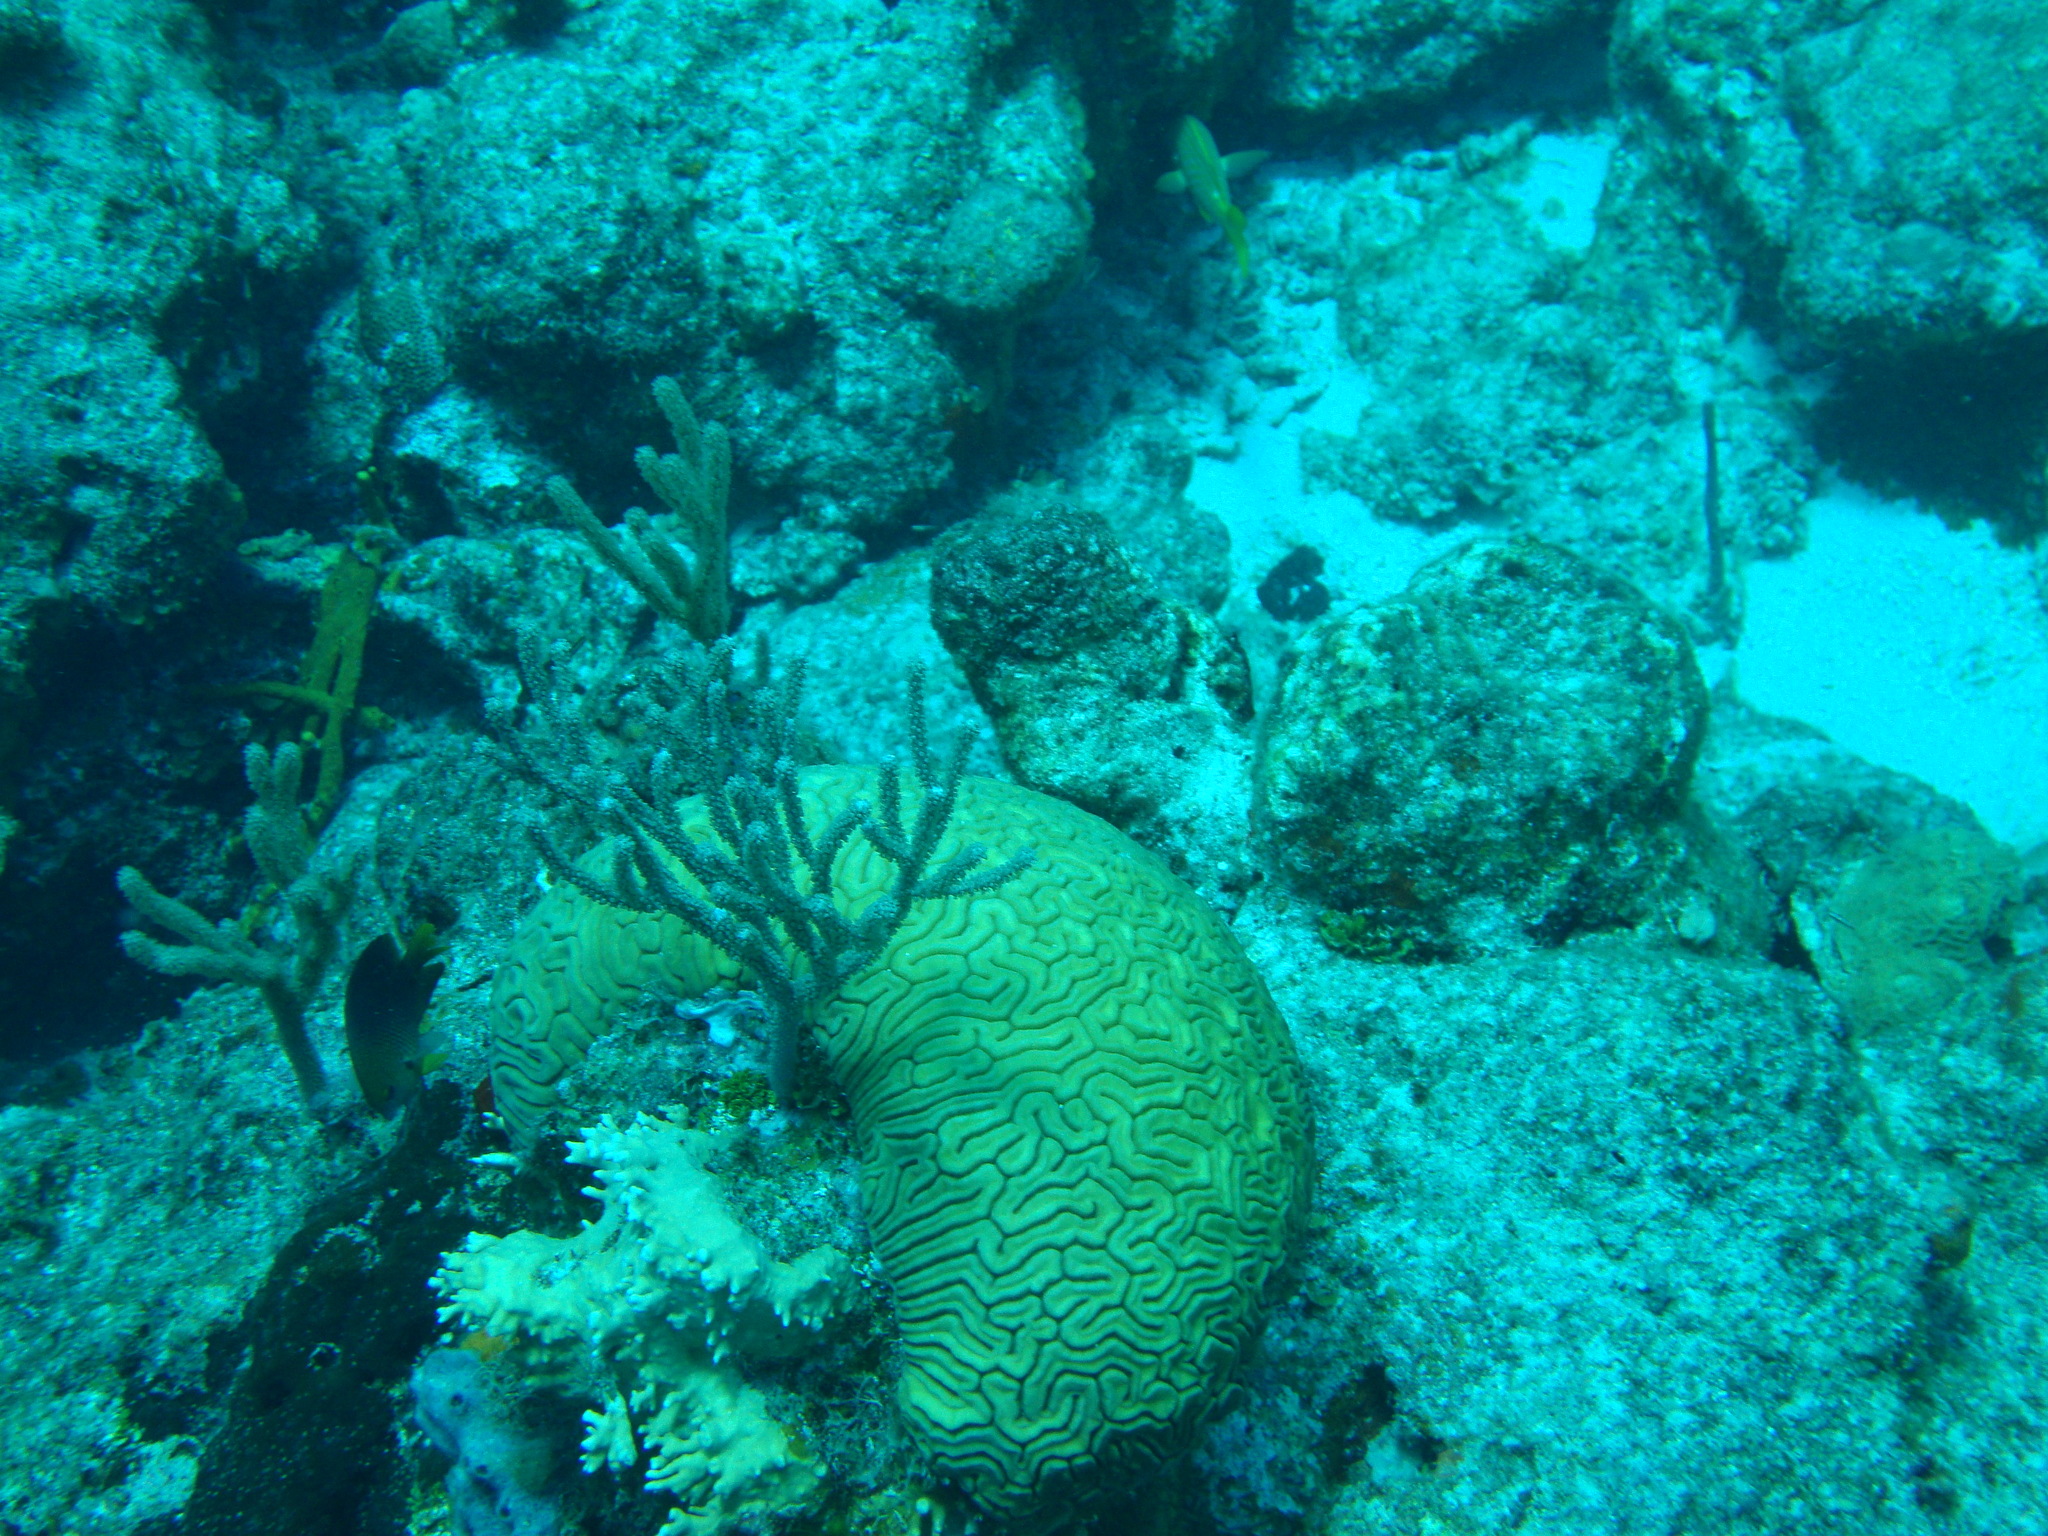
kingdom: Animalia
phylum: Cnidaria
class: Anthozoa
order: Scleractinia
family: Faviidae
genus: Diploria
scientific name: Diploria labyrinthiformis
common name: Grooved brain coral
